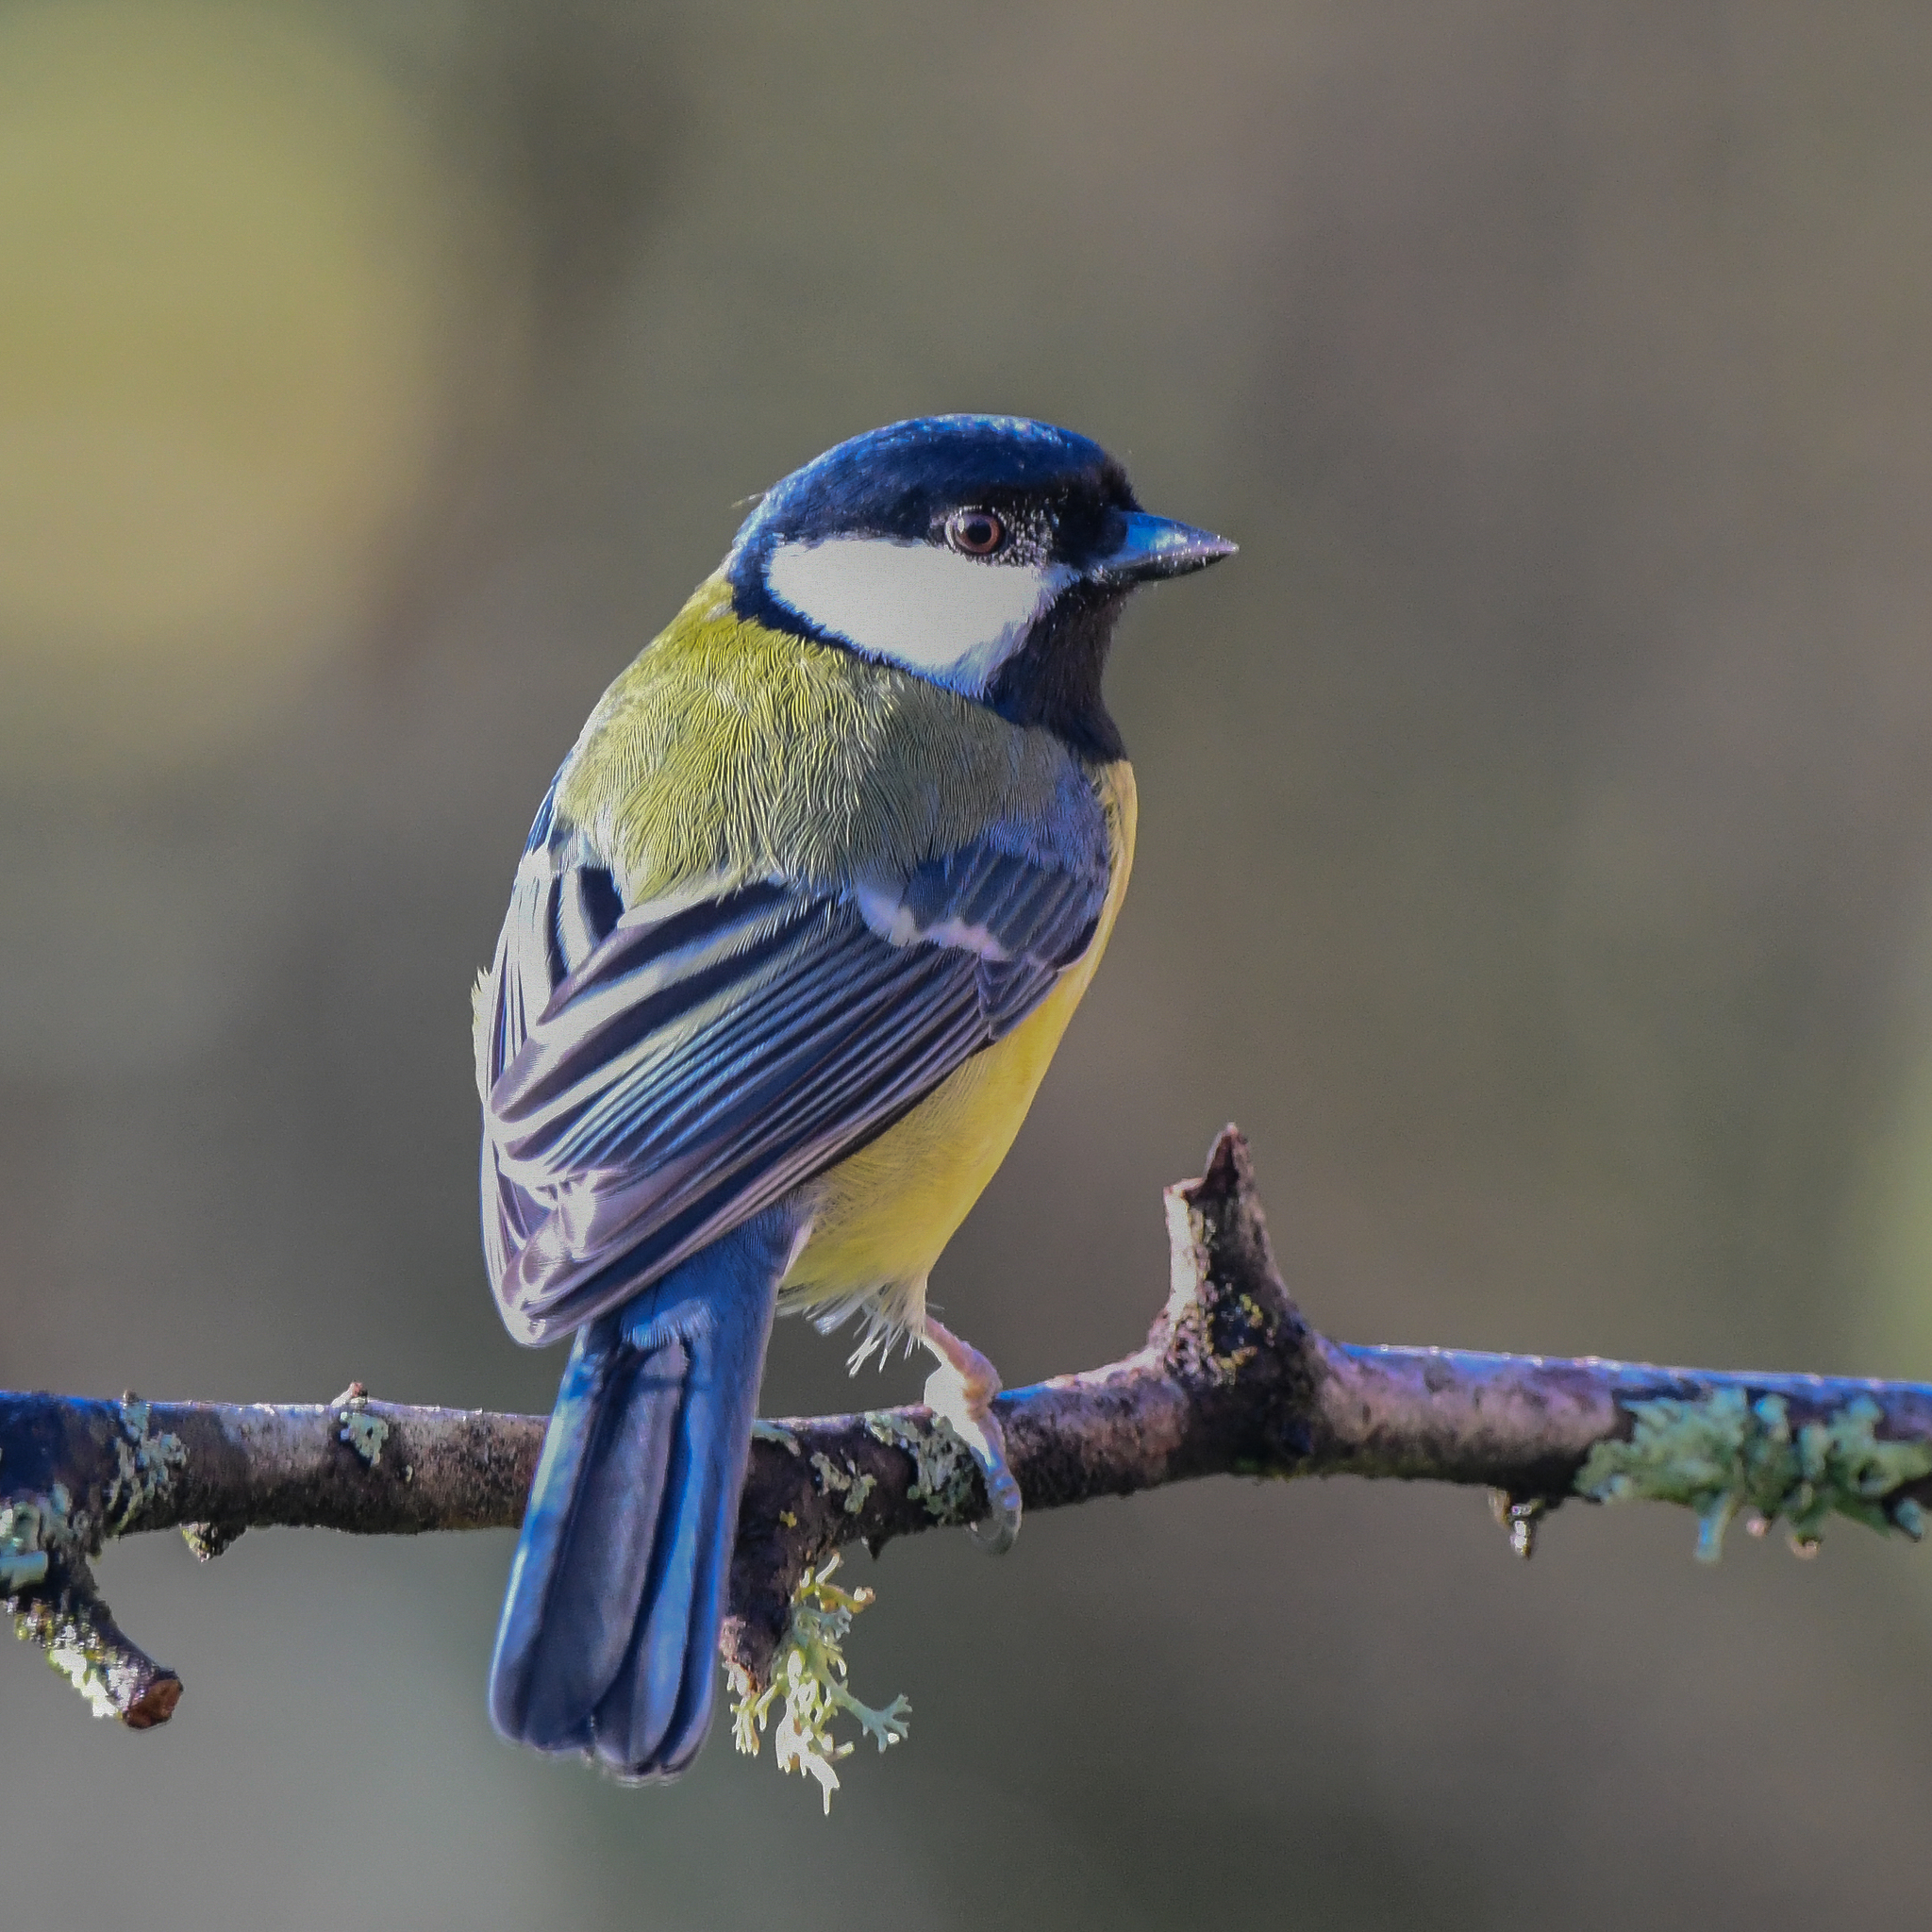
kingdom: Animalia
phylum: Chordata
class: Aves
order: Passeriformes
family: Paridae
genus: Parus
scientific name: Parus major
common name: Great tit
